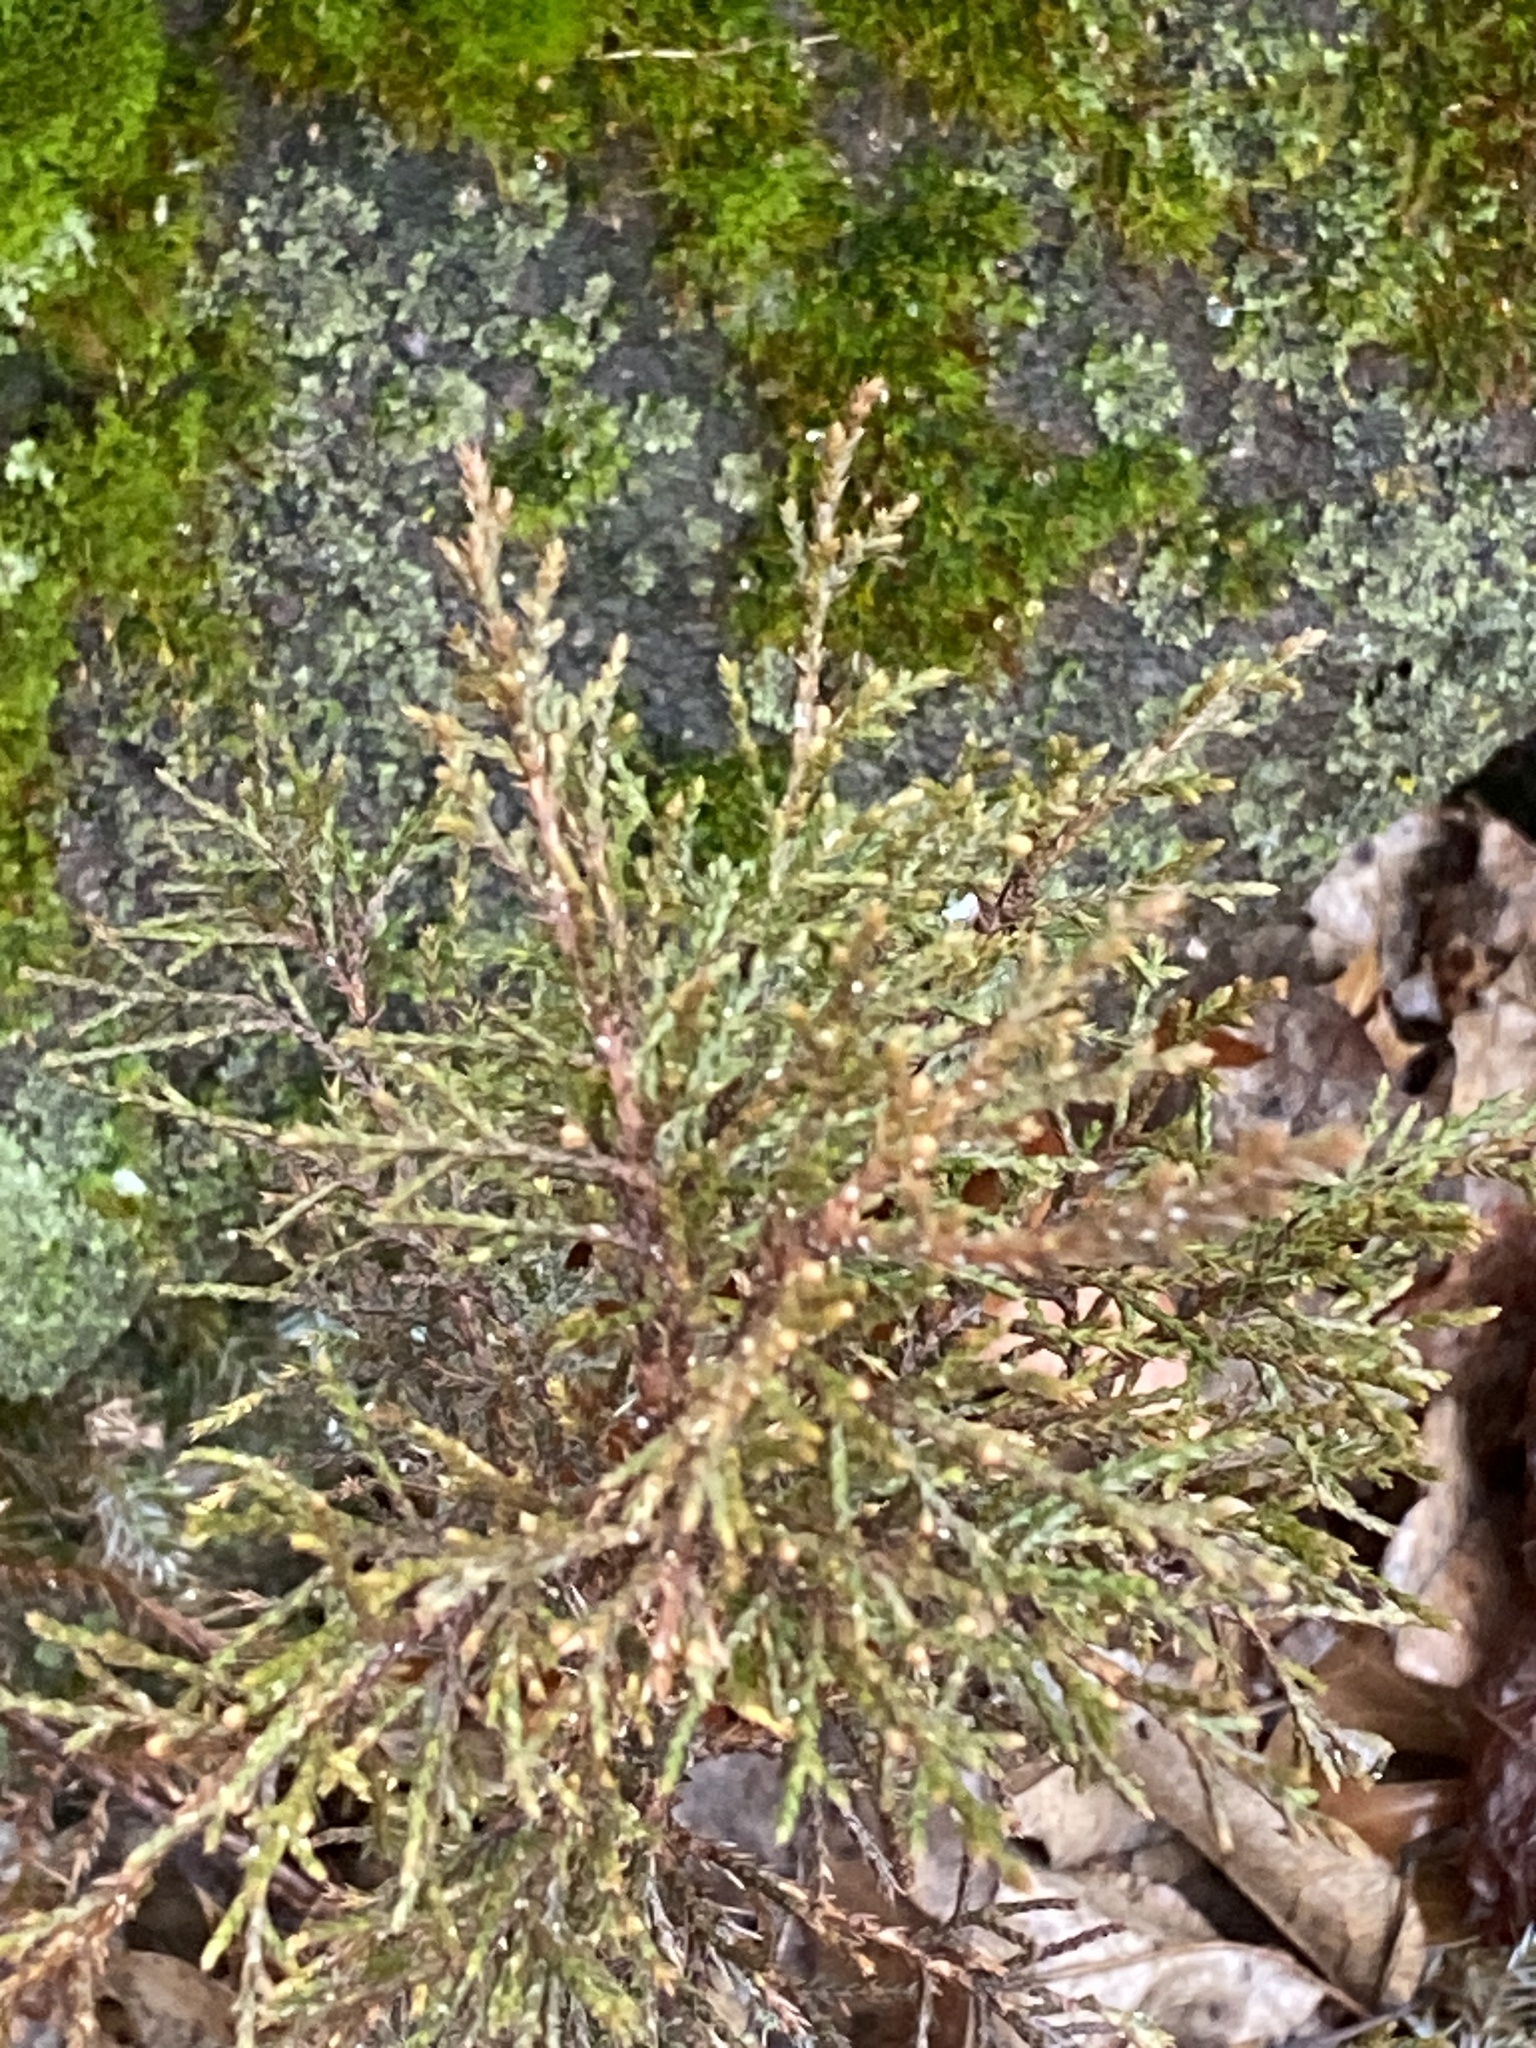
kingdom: Plantae
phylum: Tracheophyta
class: Pinopsida
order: Pinales
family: Cupressaceae
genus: Juniperus
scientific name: Juniperus virginiana
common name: Red juniper
